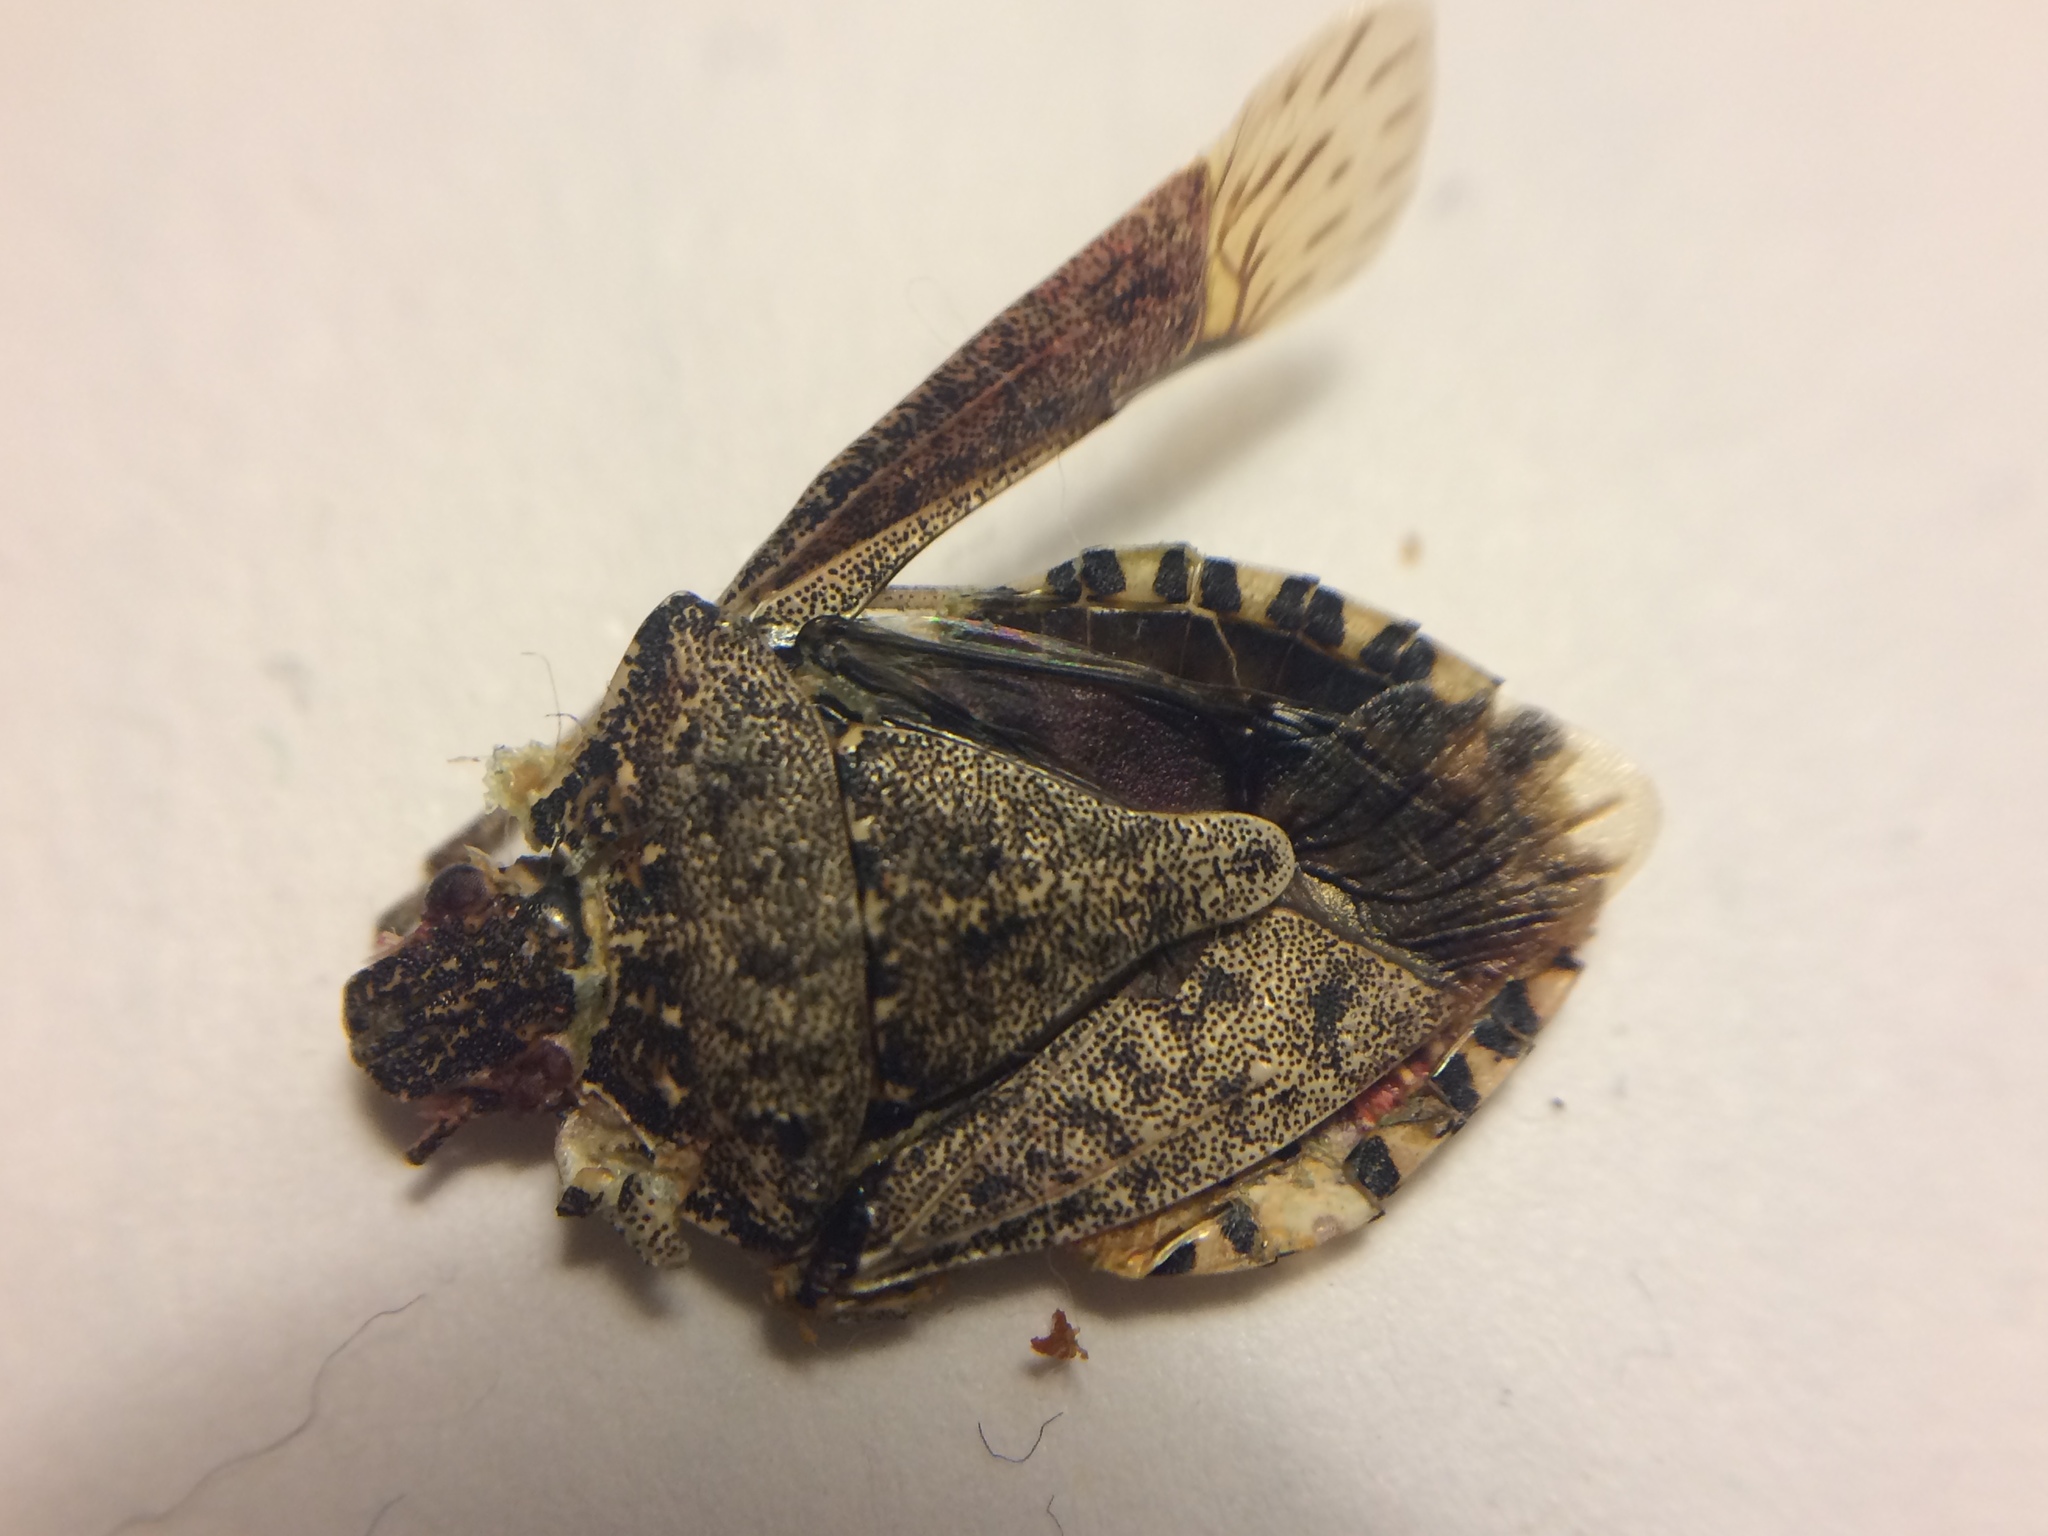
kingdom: Animalia
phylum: Arthropoda
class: Insecta
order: Hemiptera
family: Pentatomidae
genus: Halyomorpha
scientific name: Halyomorpha halys
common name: Brown marmorated stink bug
